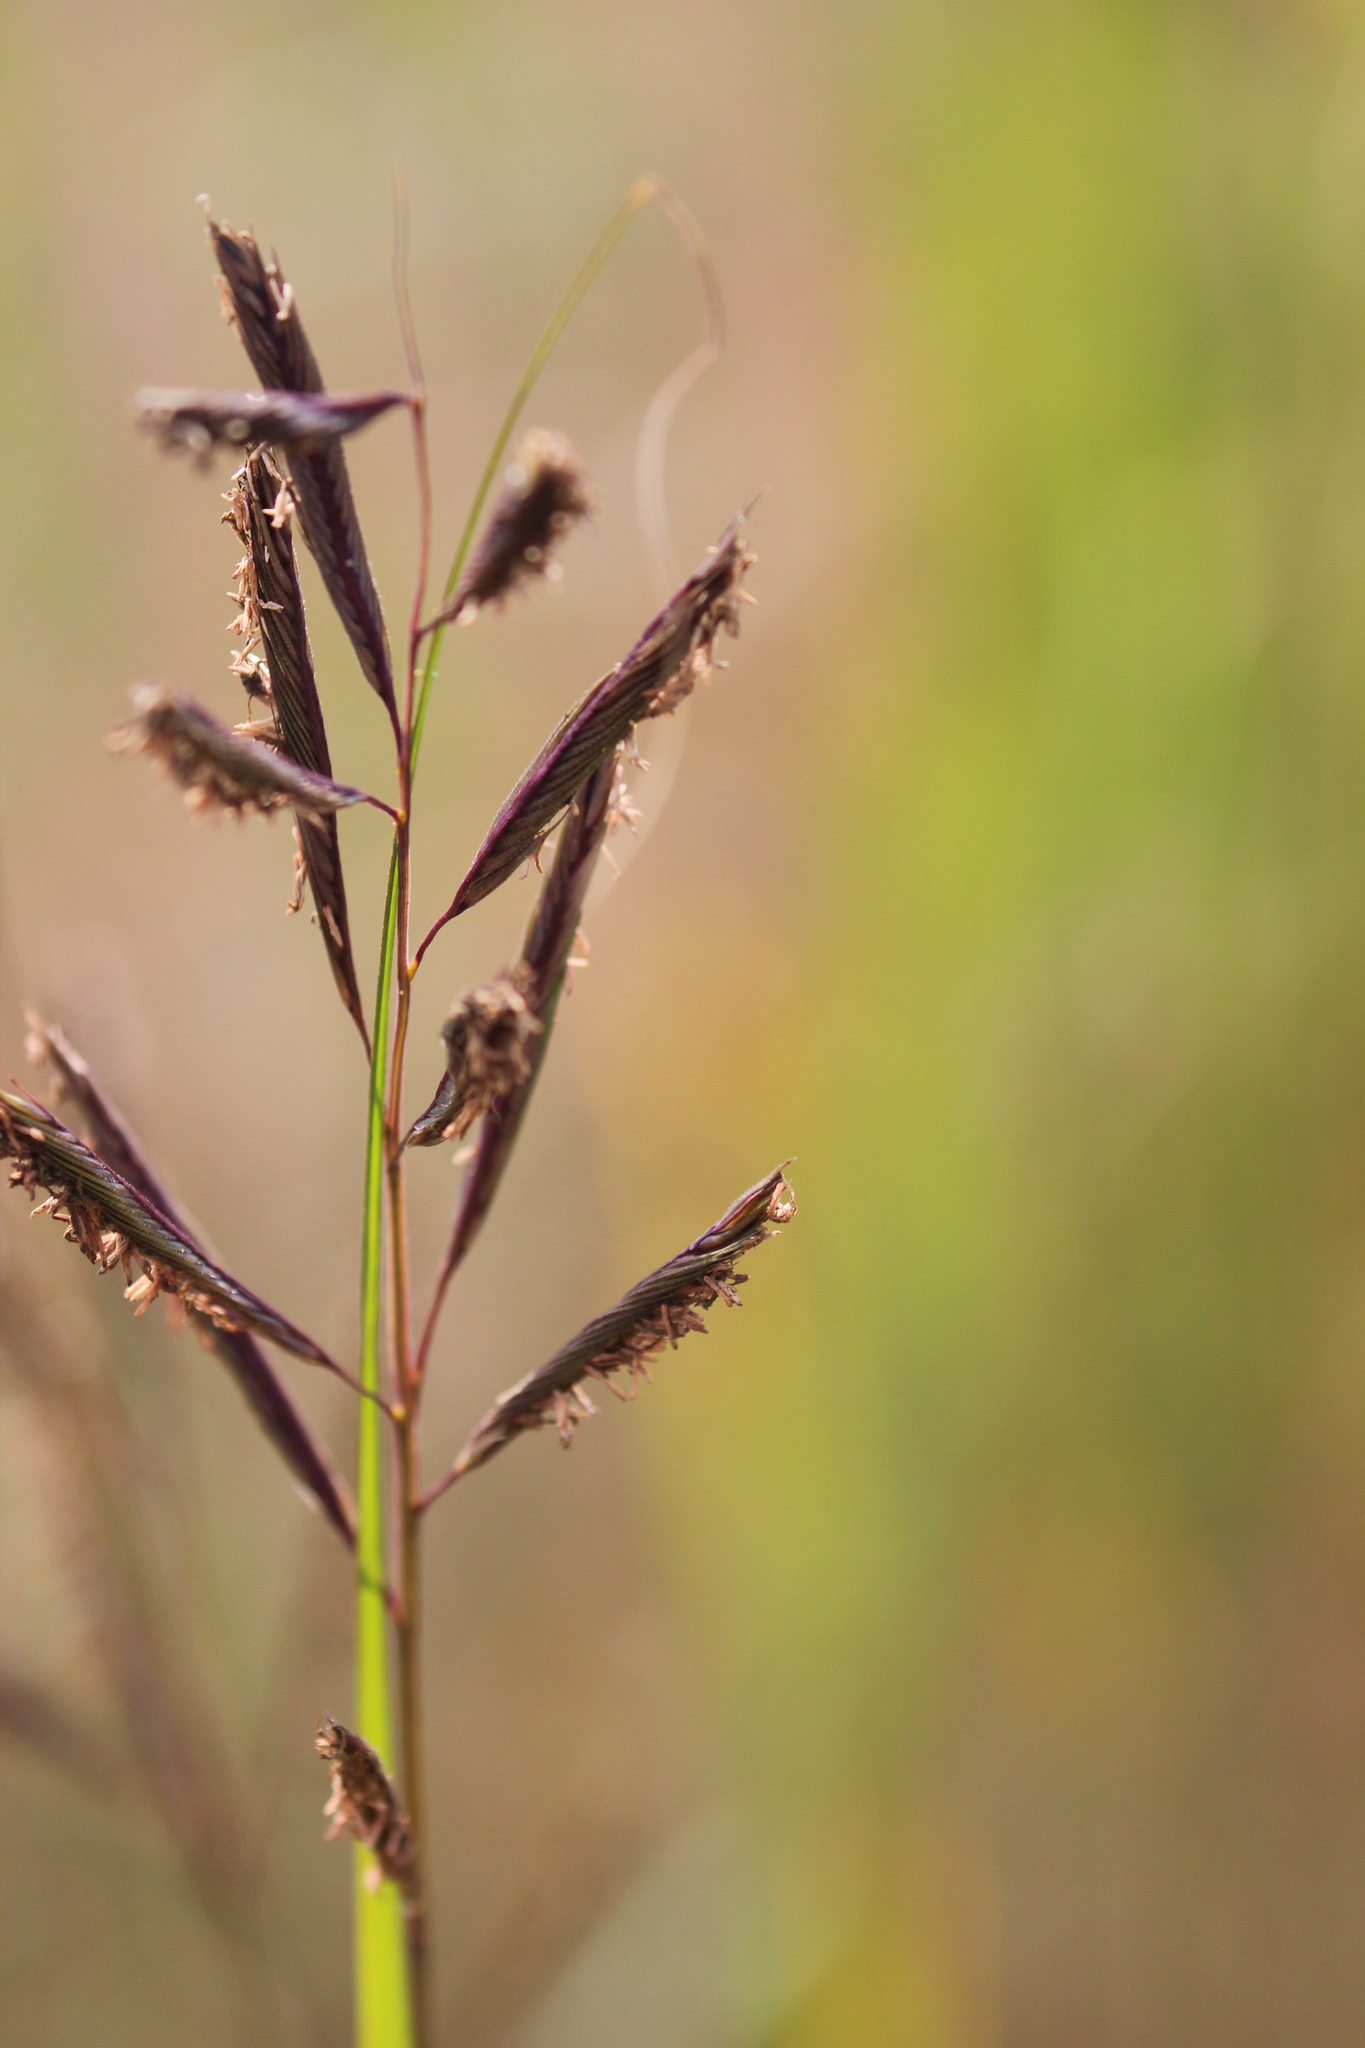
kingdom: Plantae
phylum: Tracheophyta
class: Liliopsida
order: Poales
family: Poaceae
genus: Sporobolus
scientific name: Sporobolus michauxianus
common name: Freshwater cordgrass
